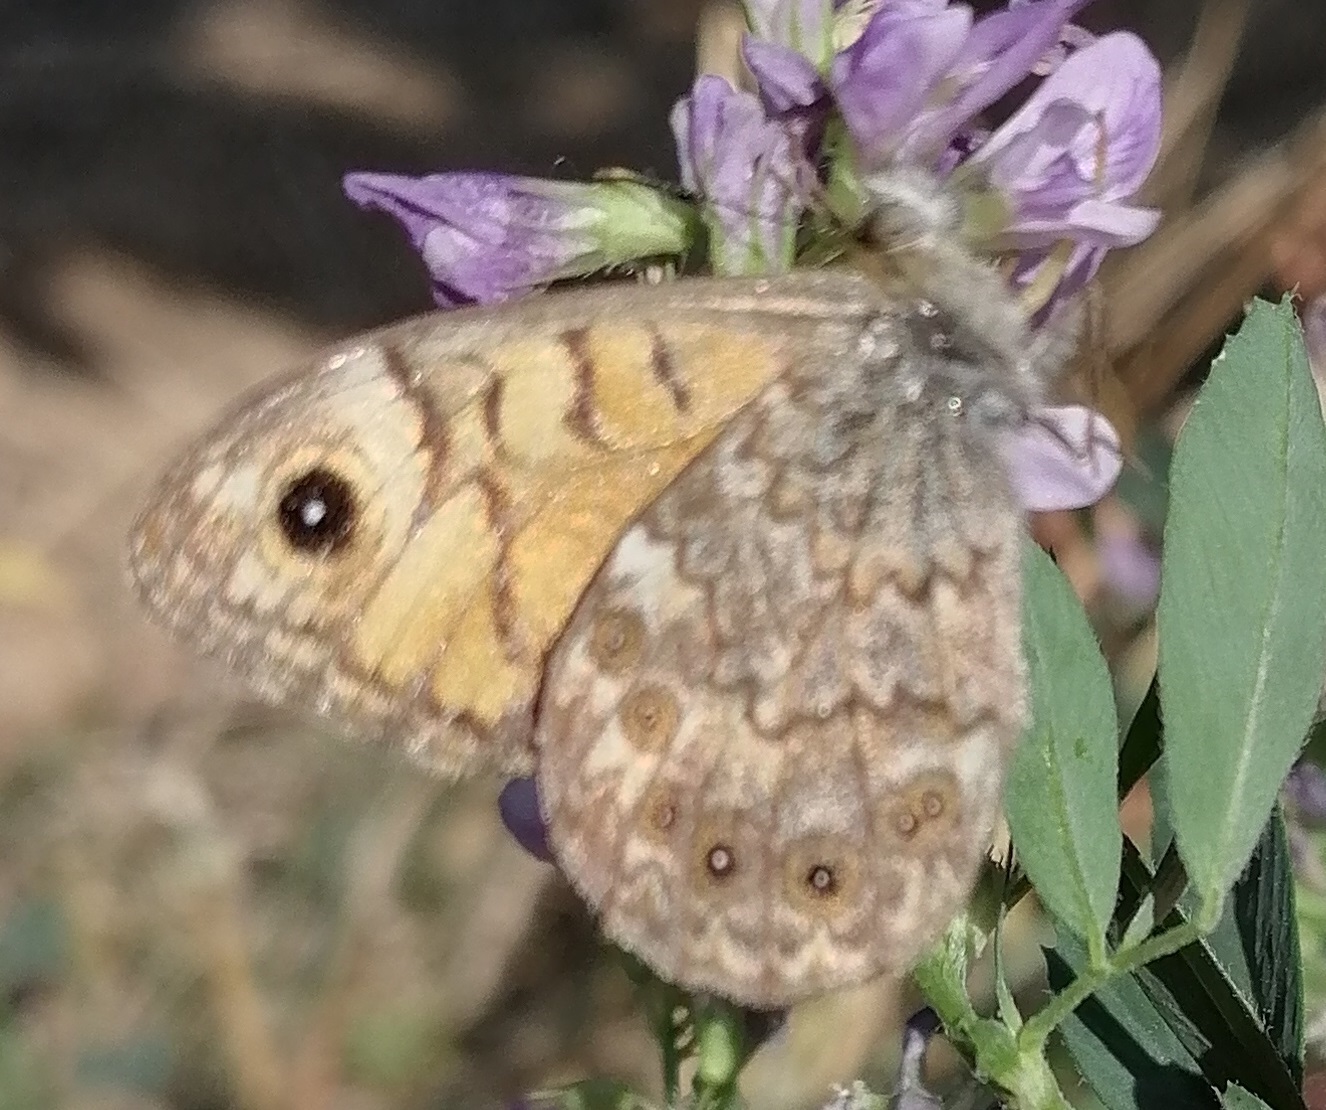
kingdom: Animalia
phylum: Arthropoda
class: Insecta
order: Lepidoptera
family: Nymphalidae
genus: Pararge
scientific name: Pararge Lasiommata megera
